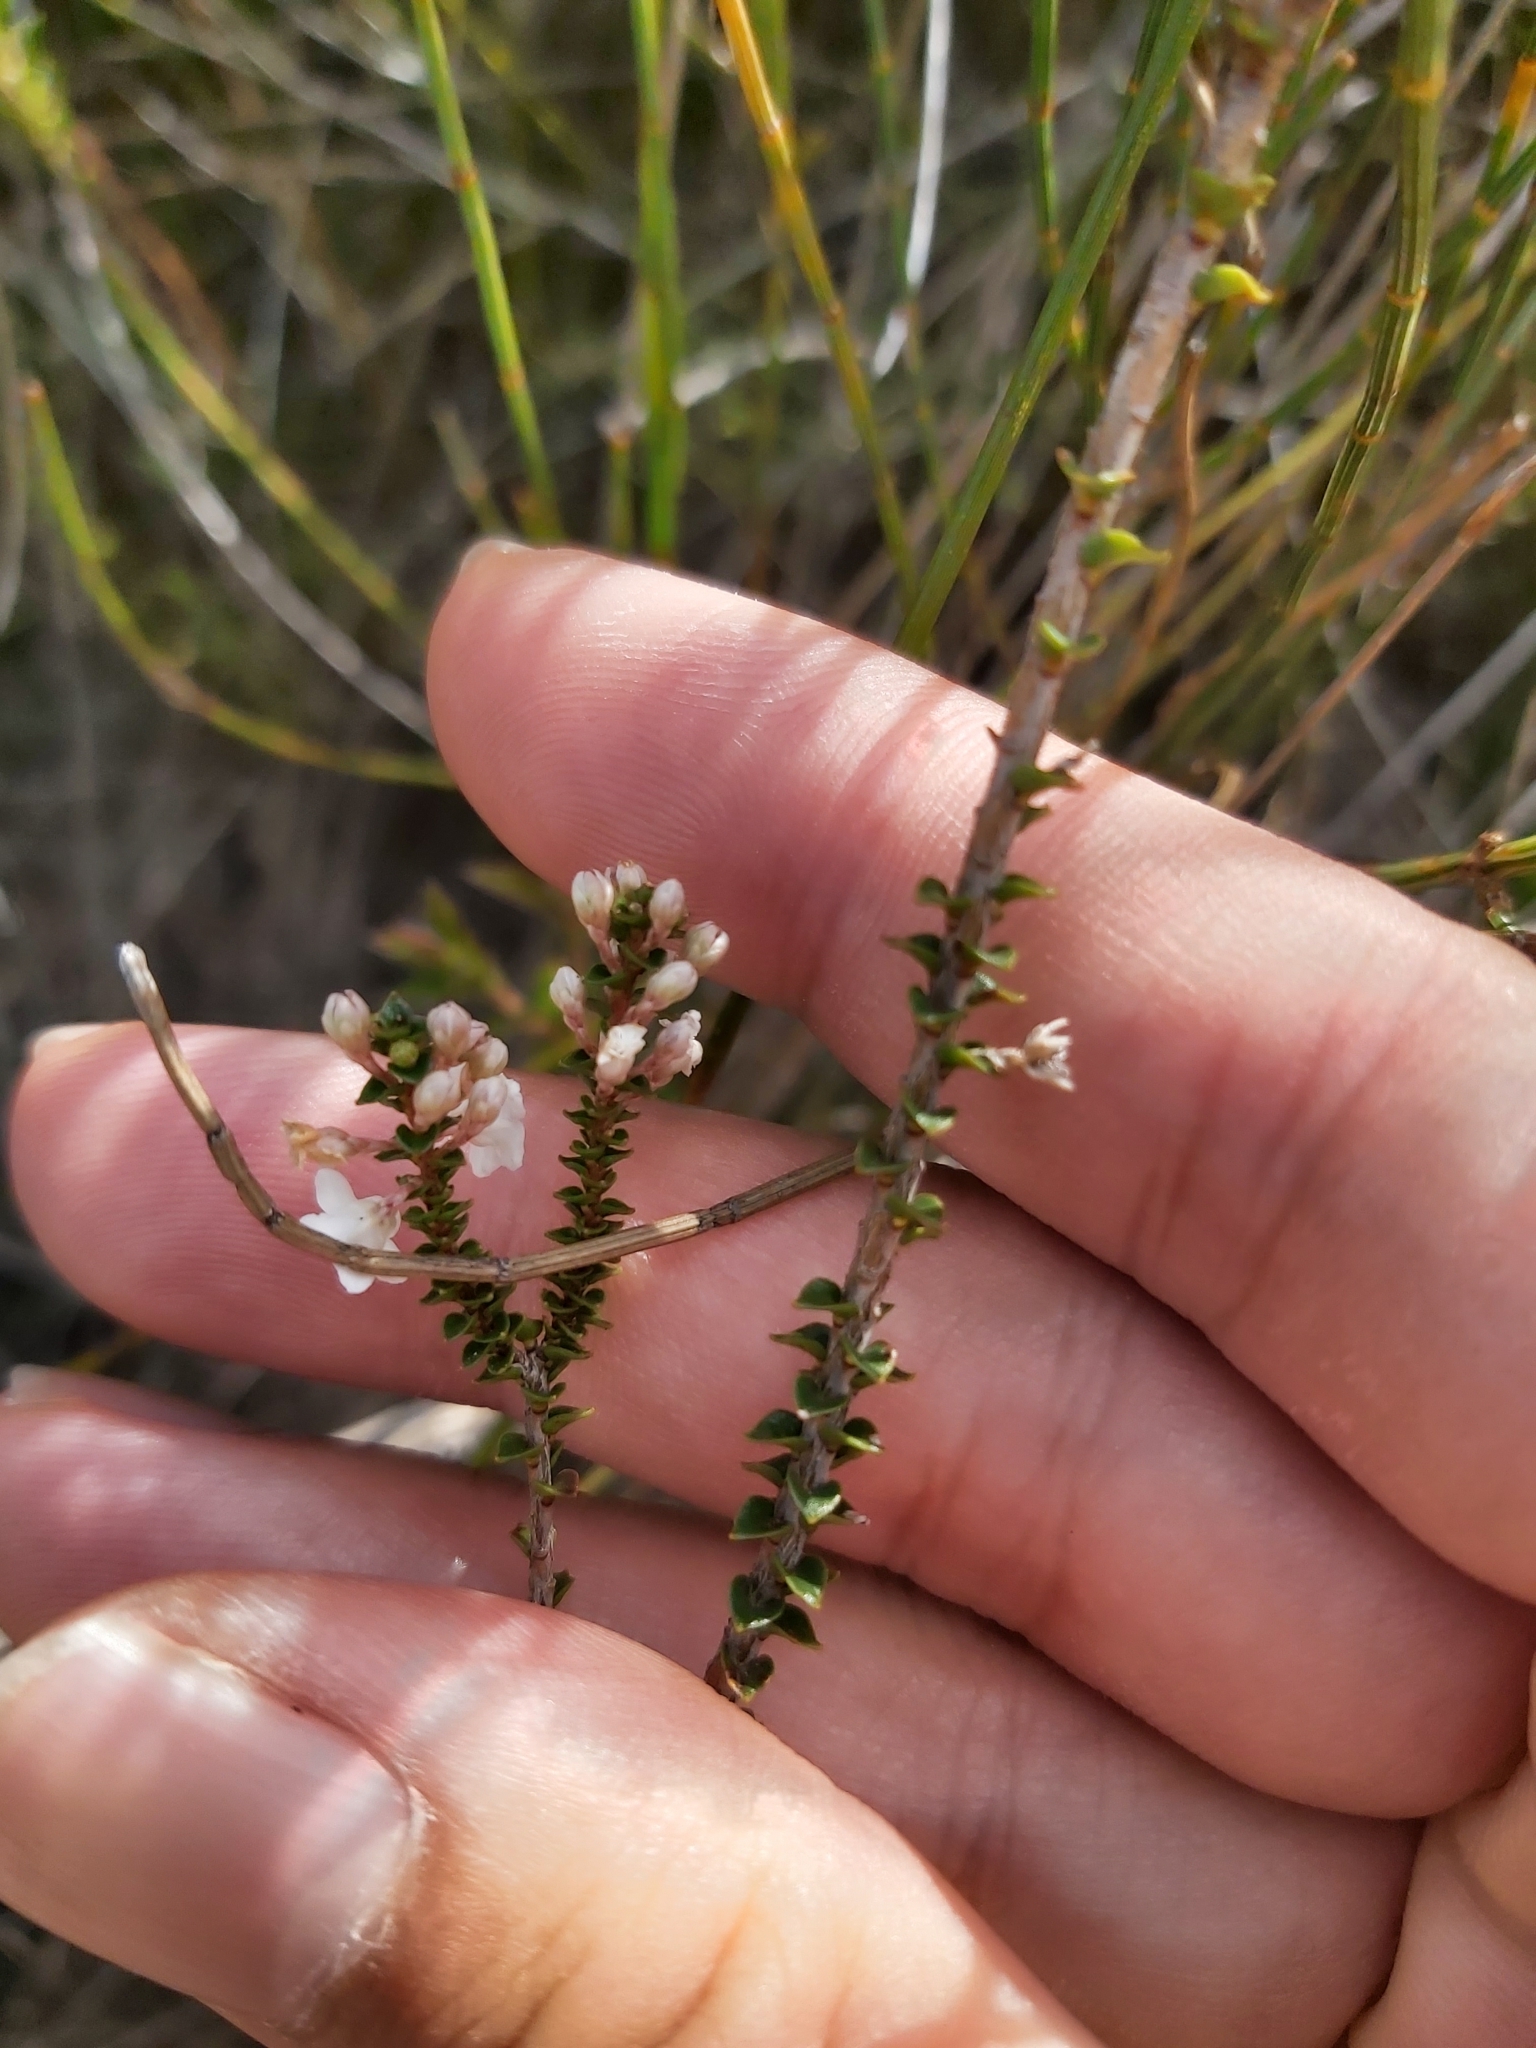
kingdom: Plantae
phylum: Tracheophyta
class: Magnoliopsida
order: Ericales
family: Ericaceae
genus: Epacris
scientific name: Epacris microphylla
